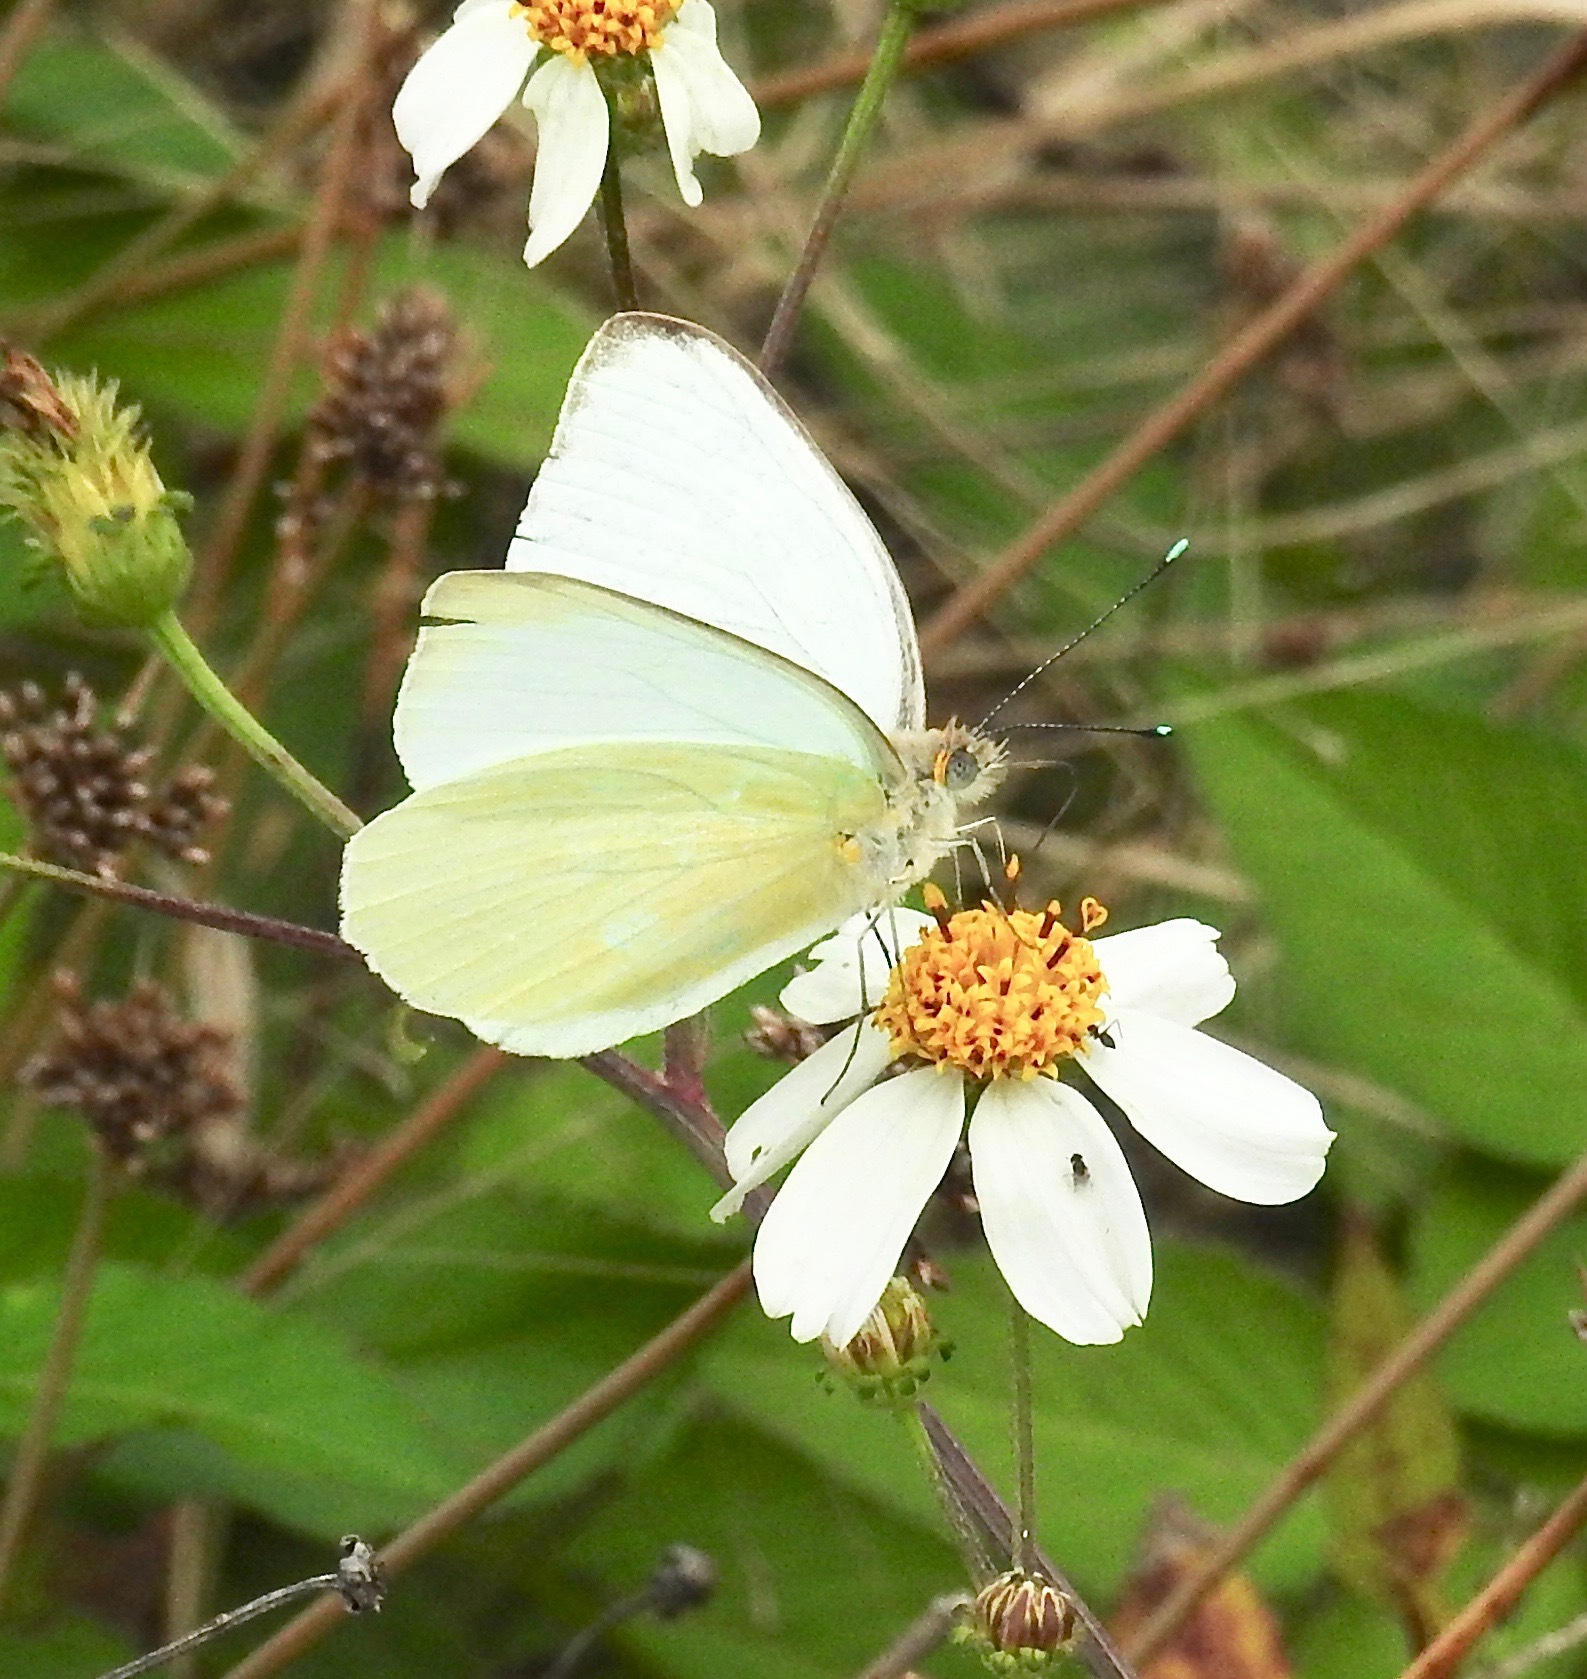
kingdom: Animalia
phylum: Arthropoda
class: Insecta
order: Lepidoptera
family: Pieridae
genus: Ascia
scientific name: Ascia monuste
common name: Great southern white
